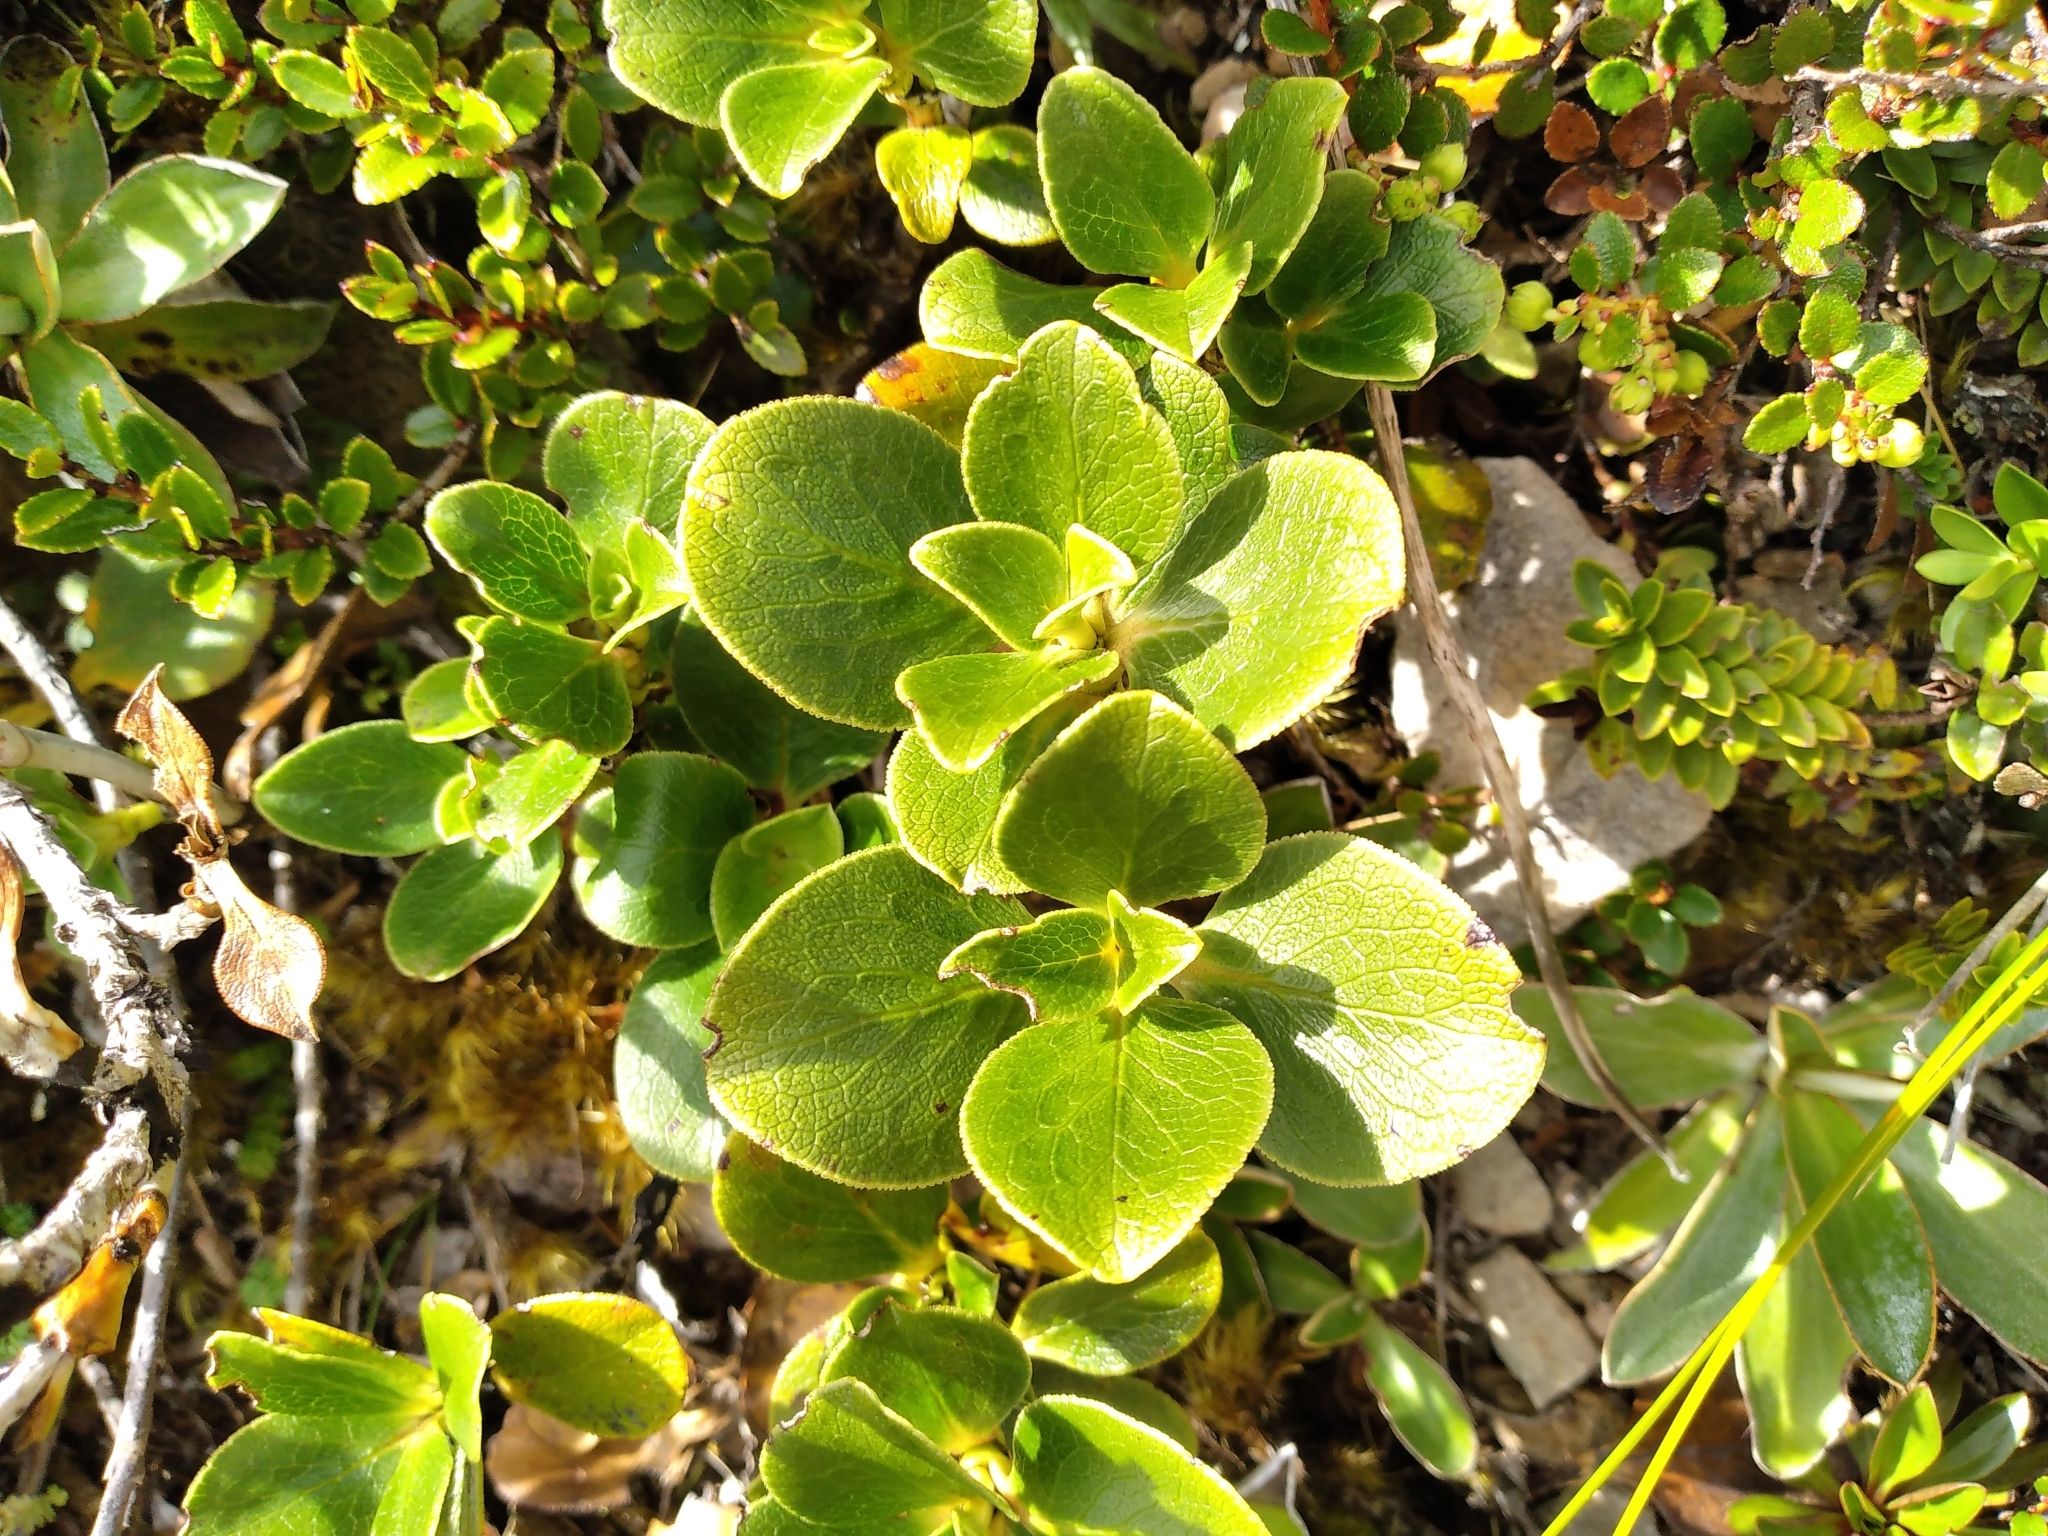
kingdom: Plantae
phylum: Tracheophyta
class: Magnoliopsida
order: Gentianales
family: Rubiaceae
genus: Coprosma
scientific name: Coprosma serrulata
